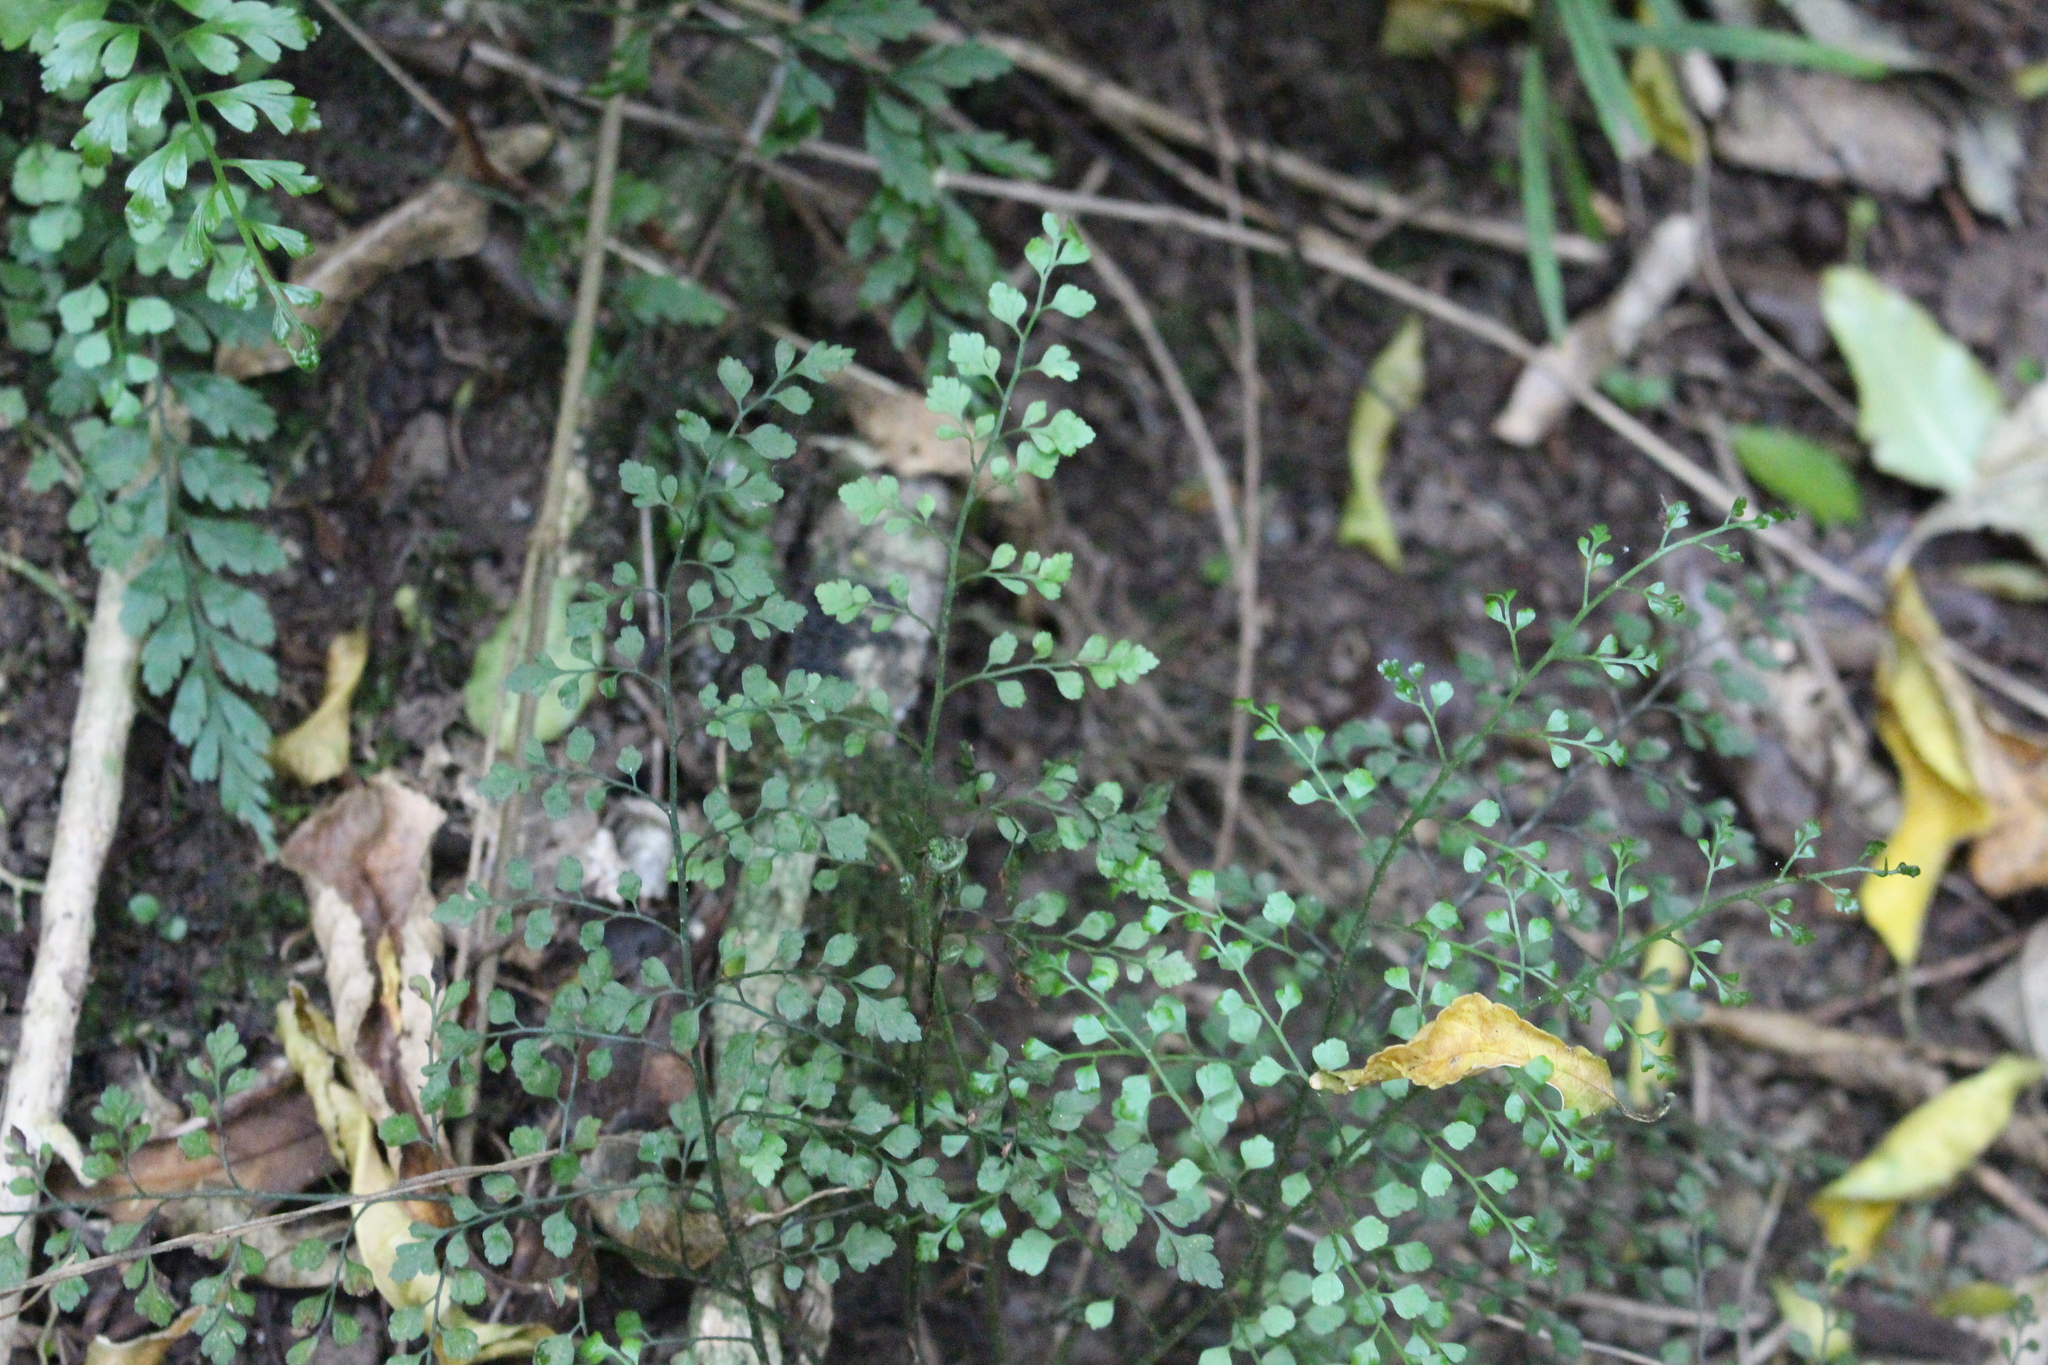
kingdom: Plantae
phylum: Tracheophyta
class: Polypodiopsida
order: Polypodiales
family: Aspleniaceae
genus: Asplenium
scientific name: Asplenium hookerianum
